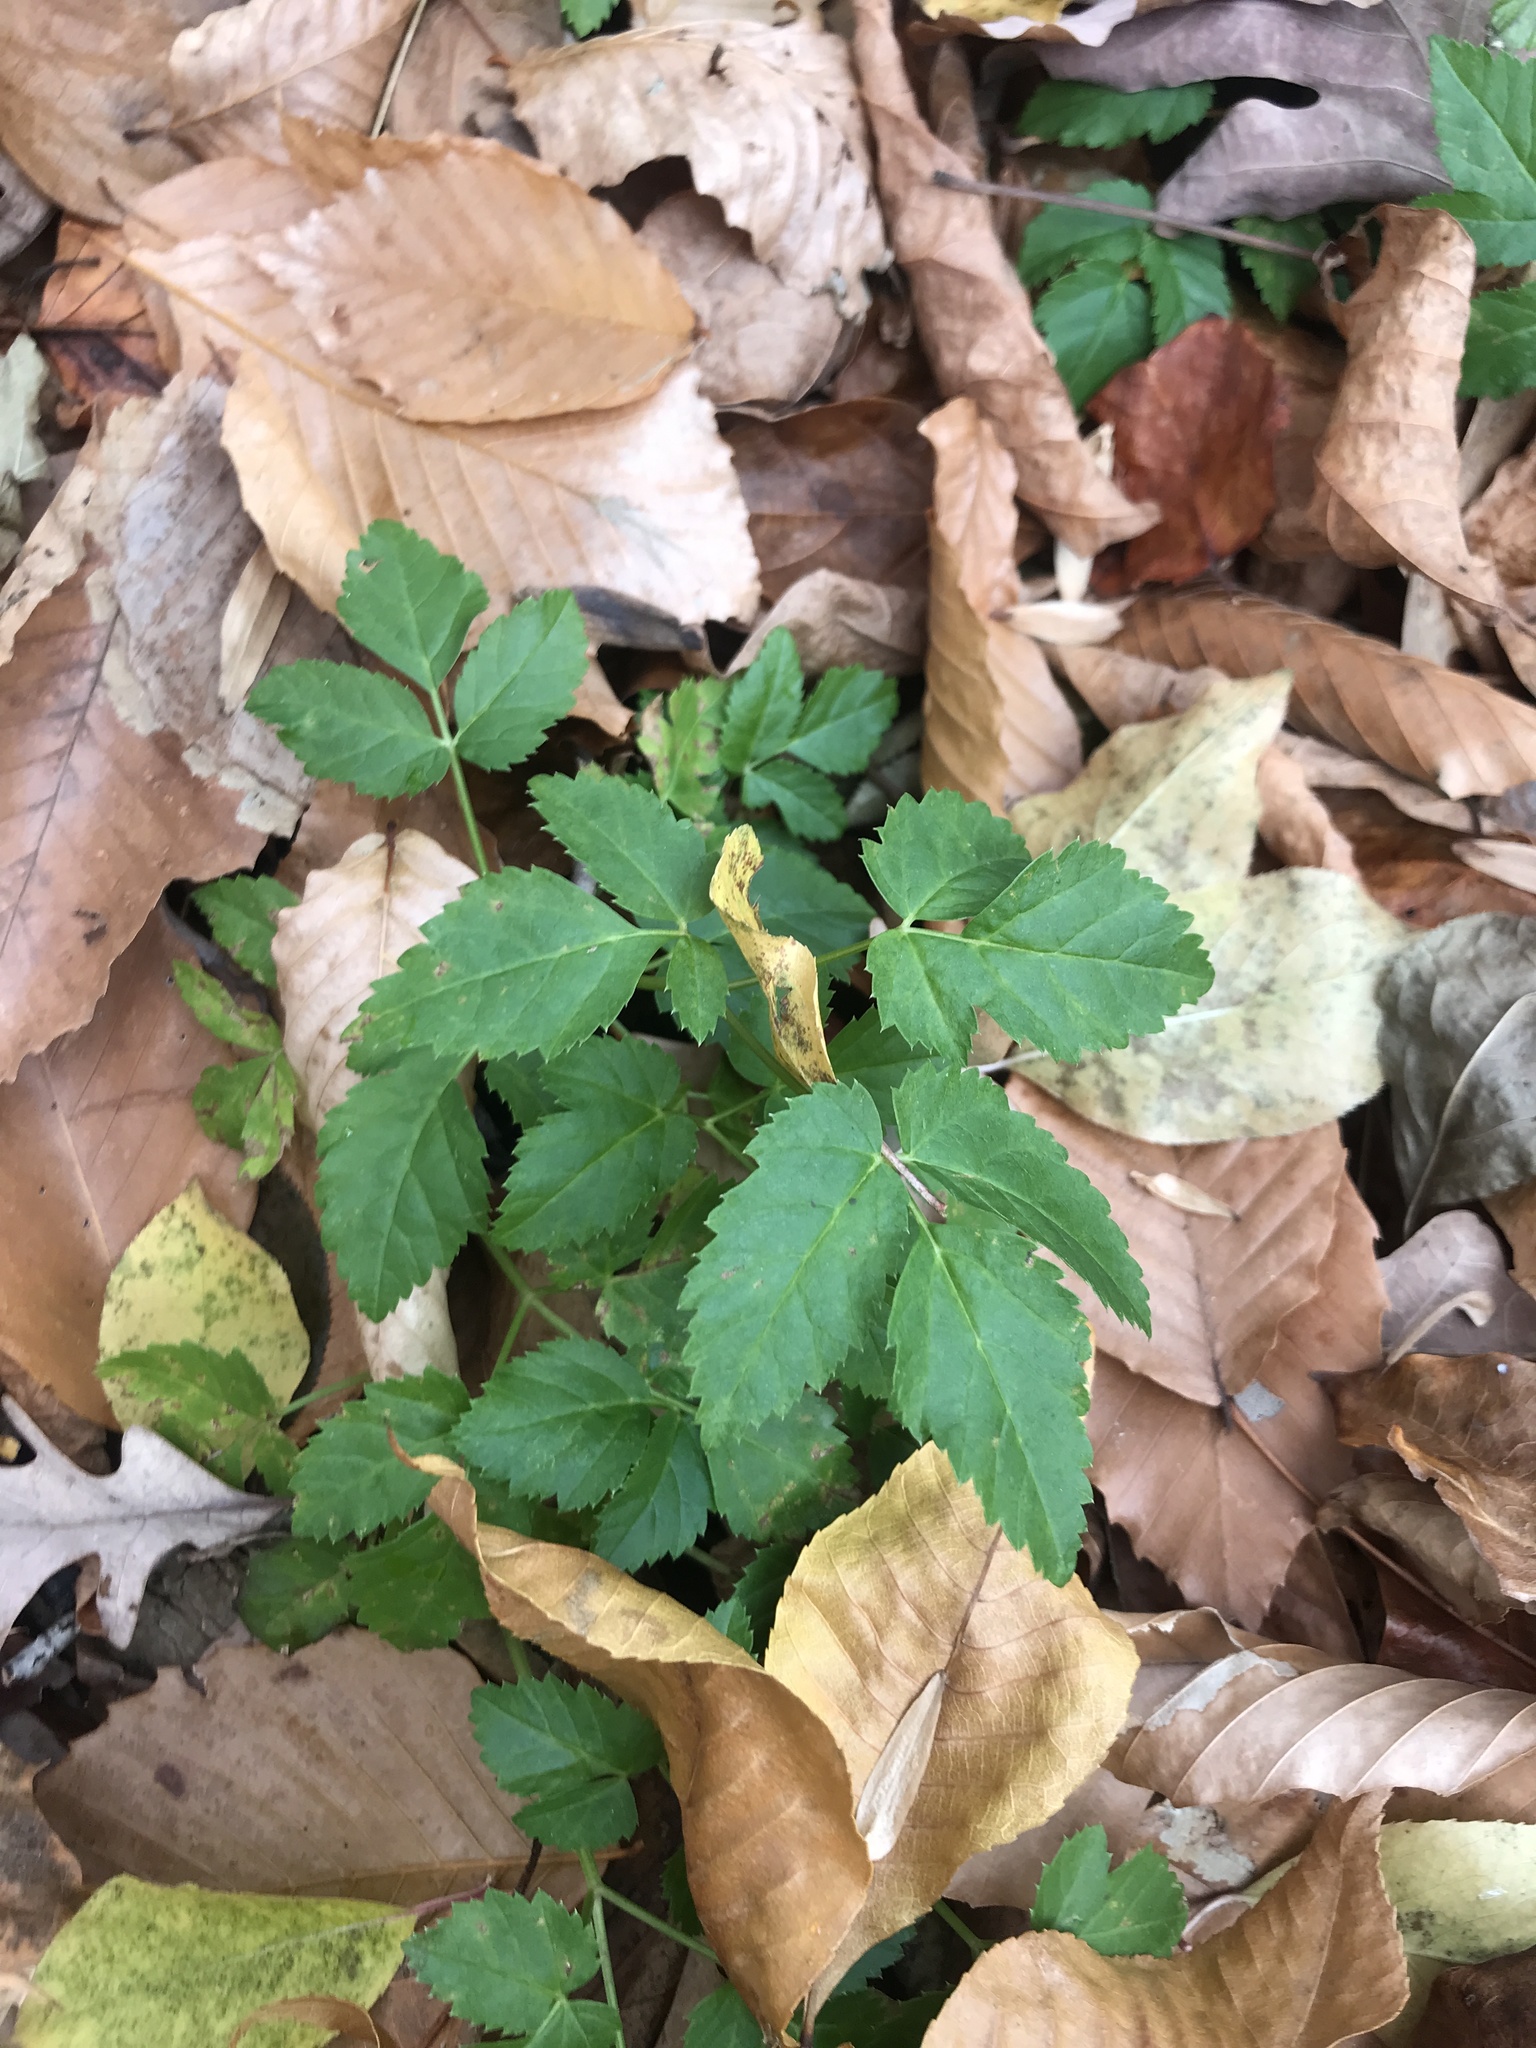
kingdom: Plantae
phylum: Tracheophyta
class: Magnoliopsida
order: Apiales
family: Apiaceae
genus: Aegopodium
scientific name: Aegopodium podagraria
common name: Ground-elder
